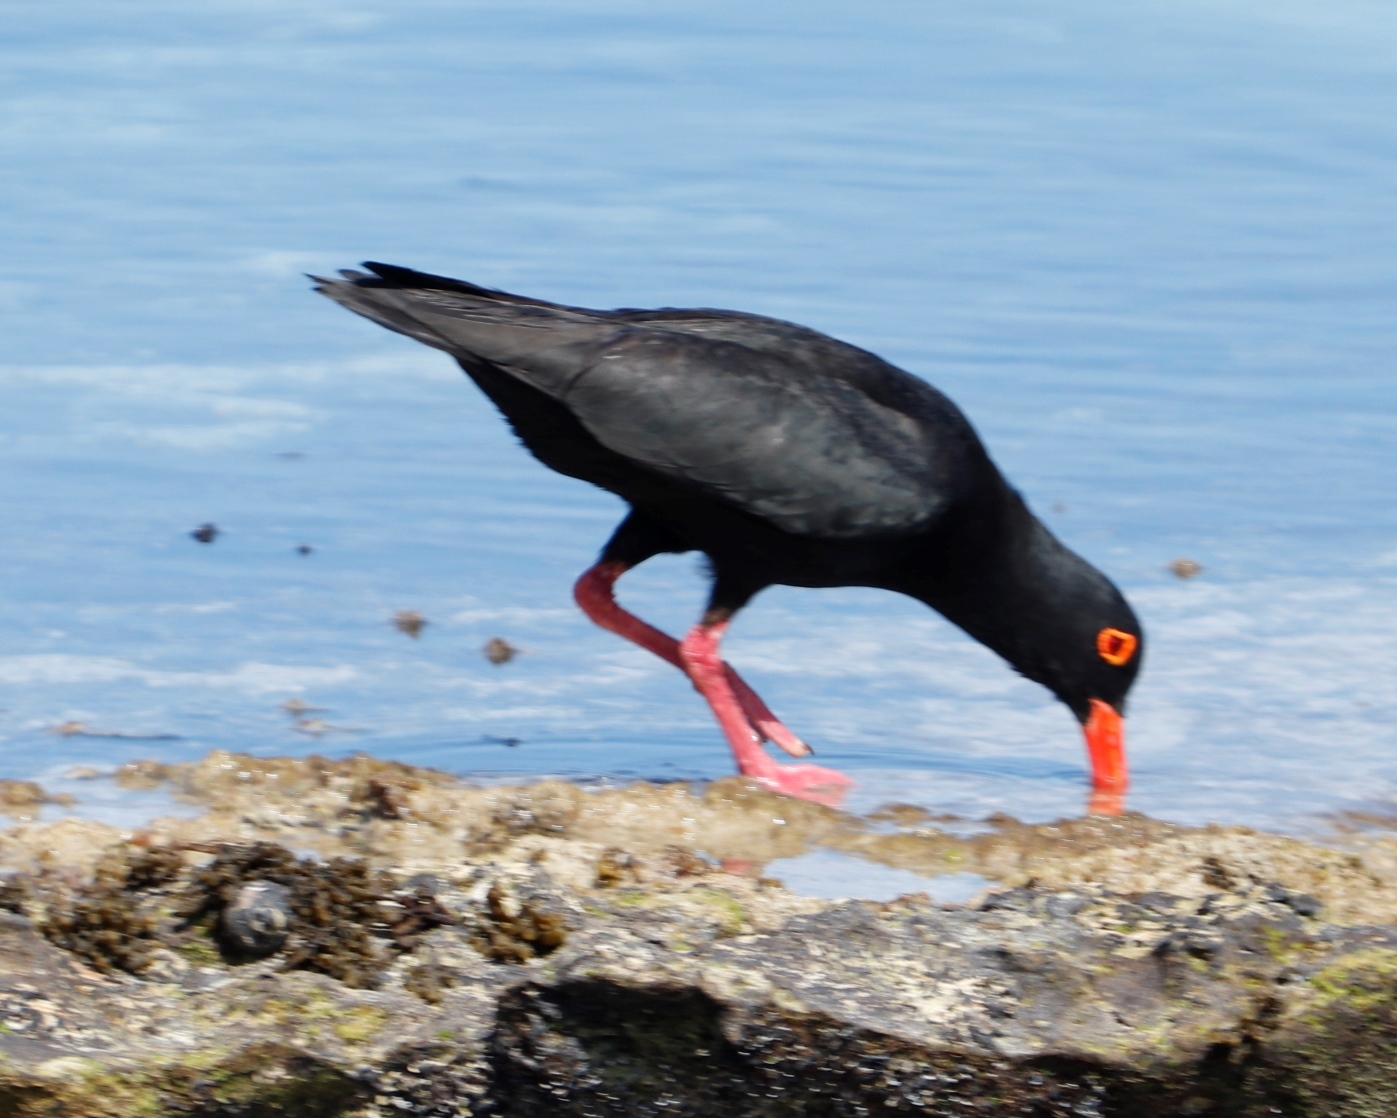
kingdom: Animalia
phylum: Chordata
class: Aves
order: Charadriiformes
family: Haematopodidae
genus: Haematopus
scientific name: Haematopus moquini
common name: African oystercatcher
